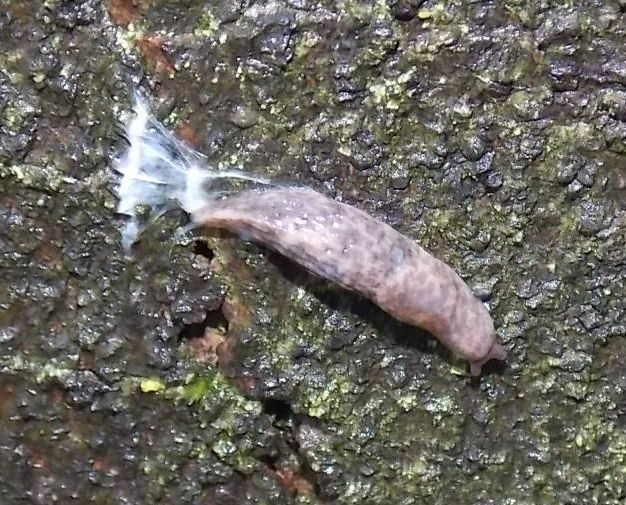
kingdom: Animalia
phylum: Mollusca
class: Gastropoda
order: Stylommatophora
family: Agriolimacidae
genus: Deroceras
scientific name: Deroceras reticulatum
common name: Gray field slug
